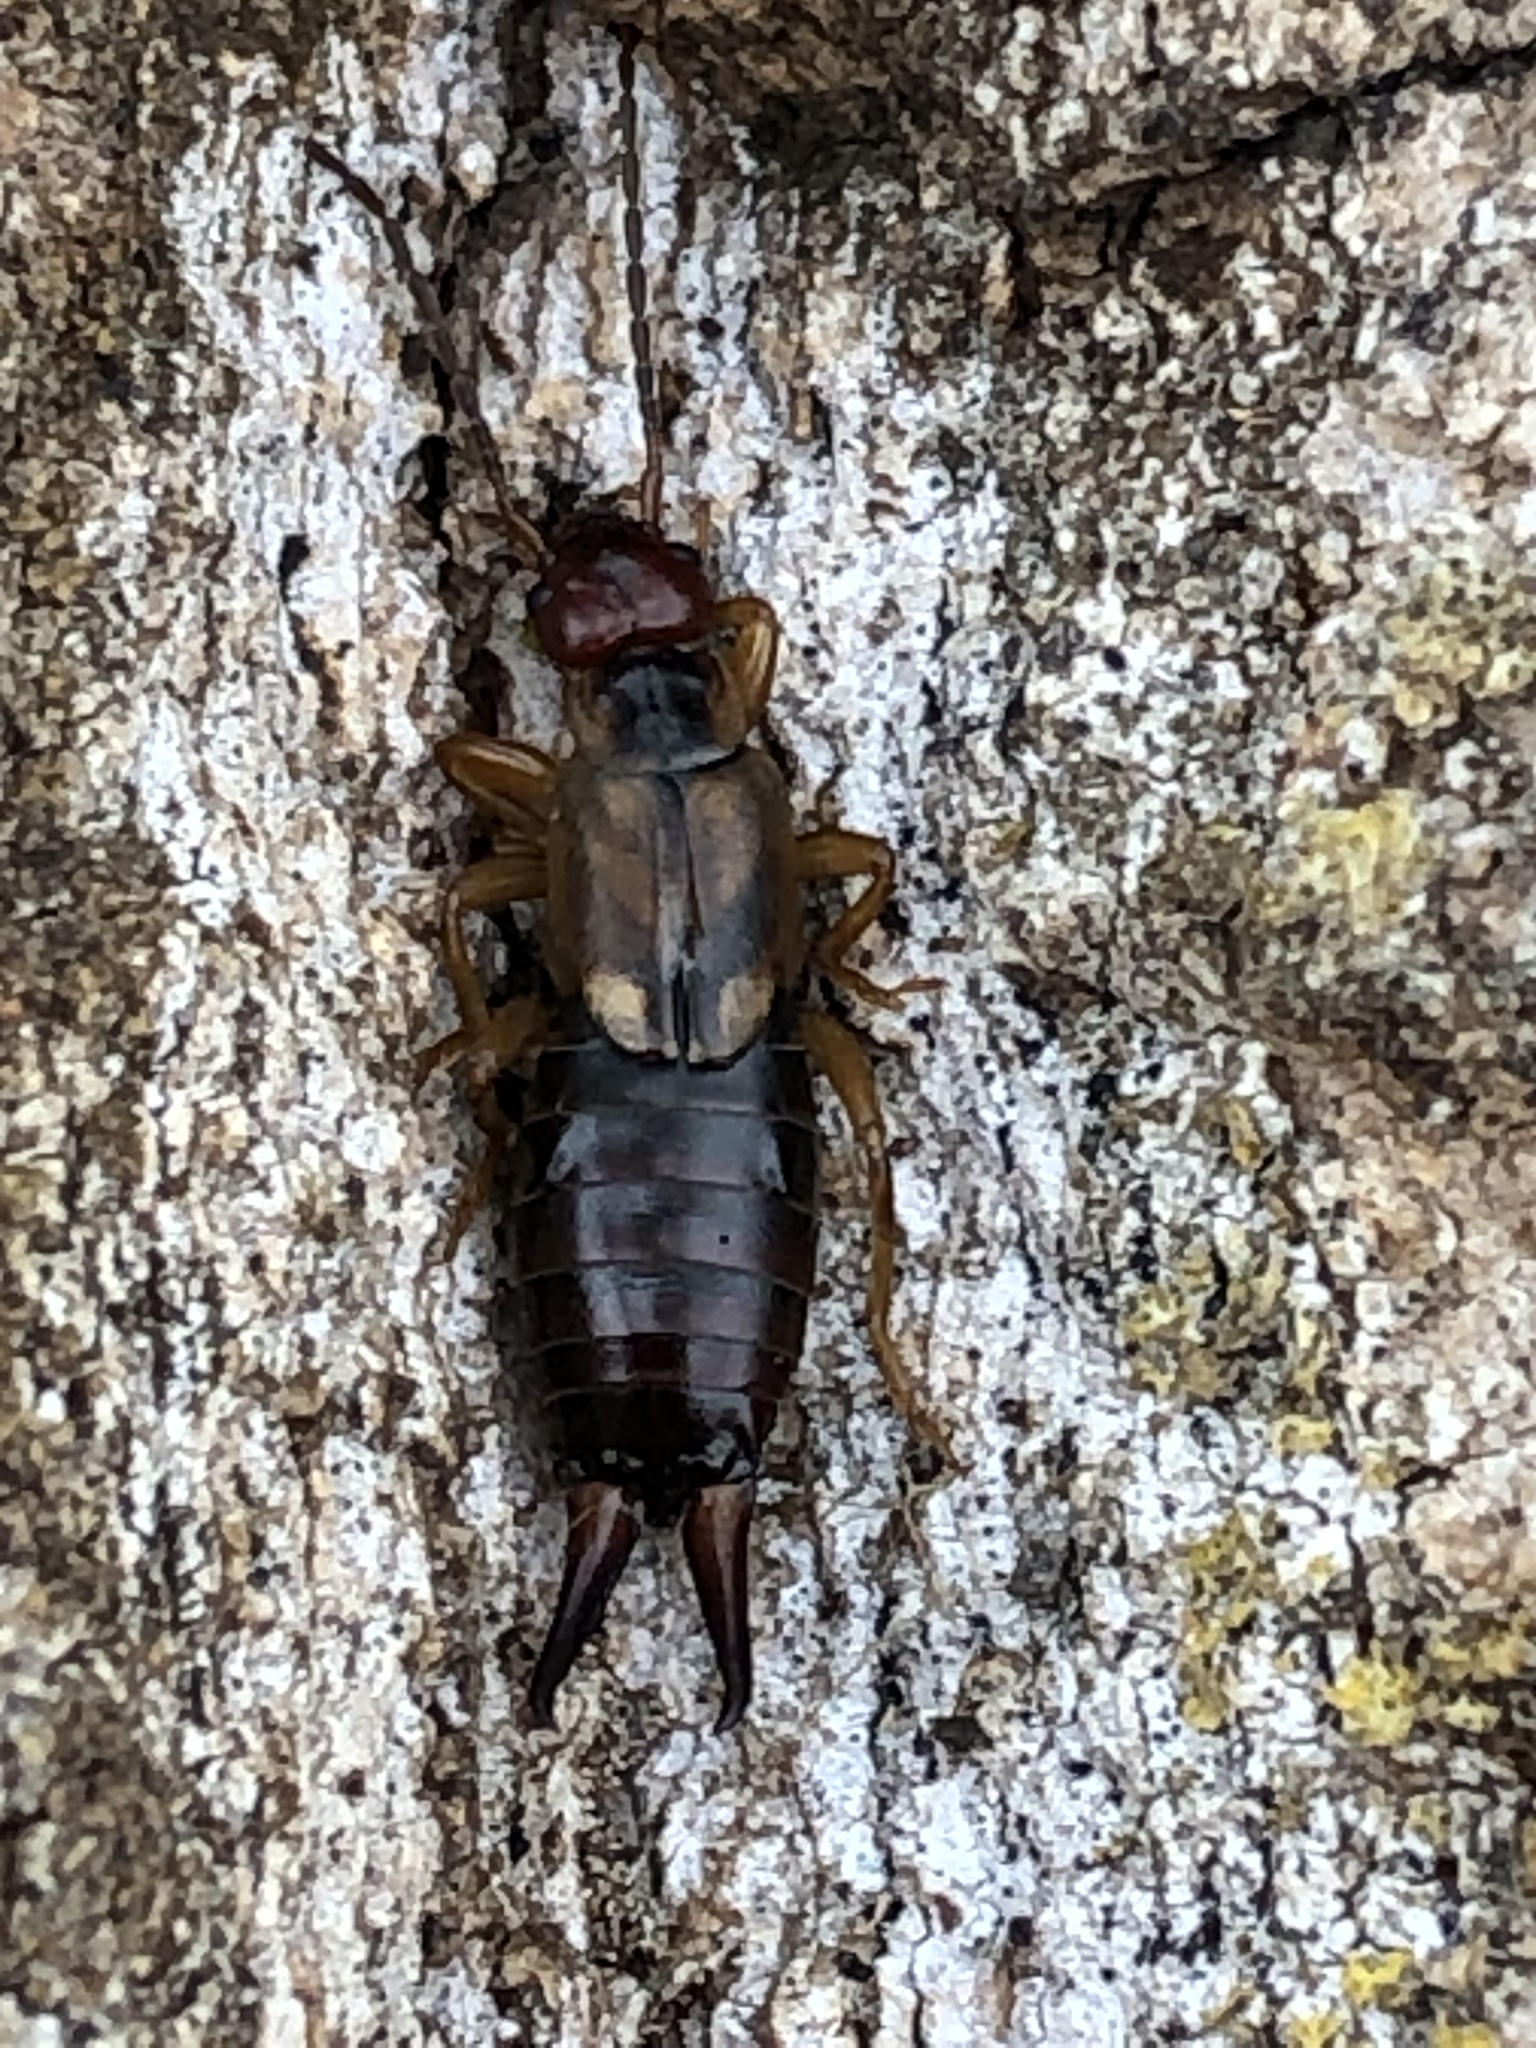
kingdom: Animalia
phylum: Arthropoda
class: Insecta
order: Dermaptera
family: Forficulidae
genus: Forficula
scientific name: Forficula
